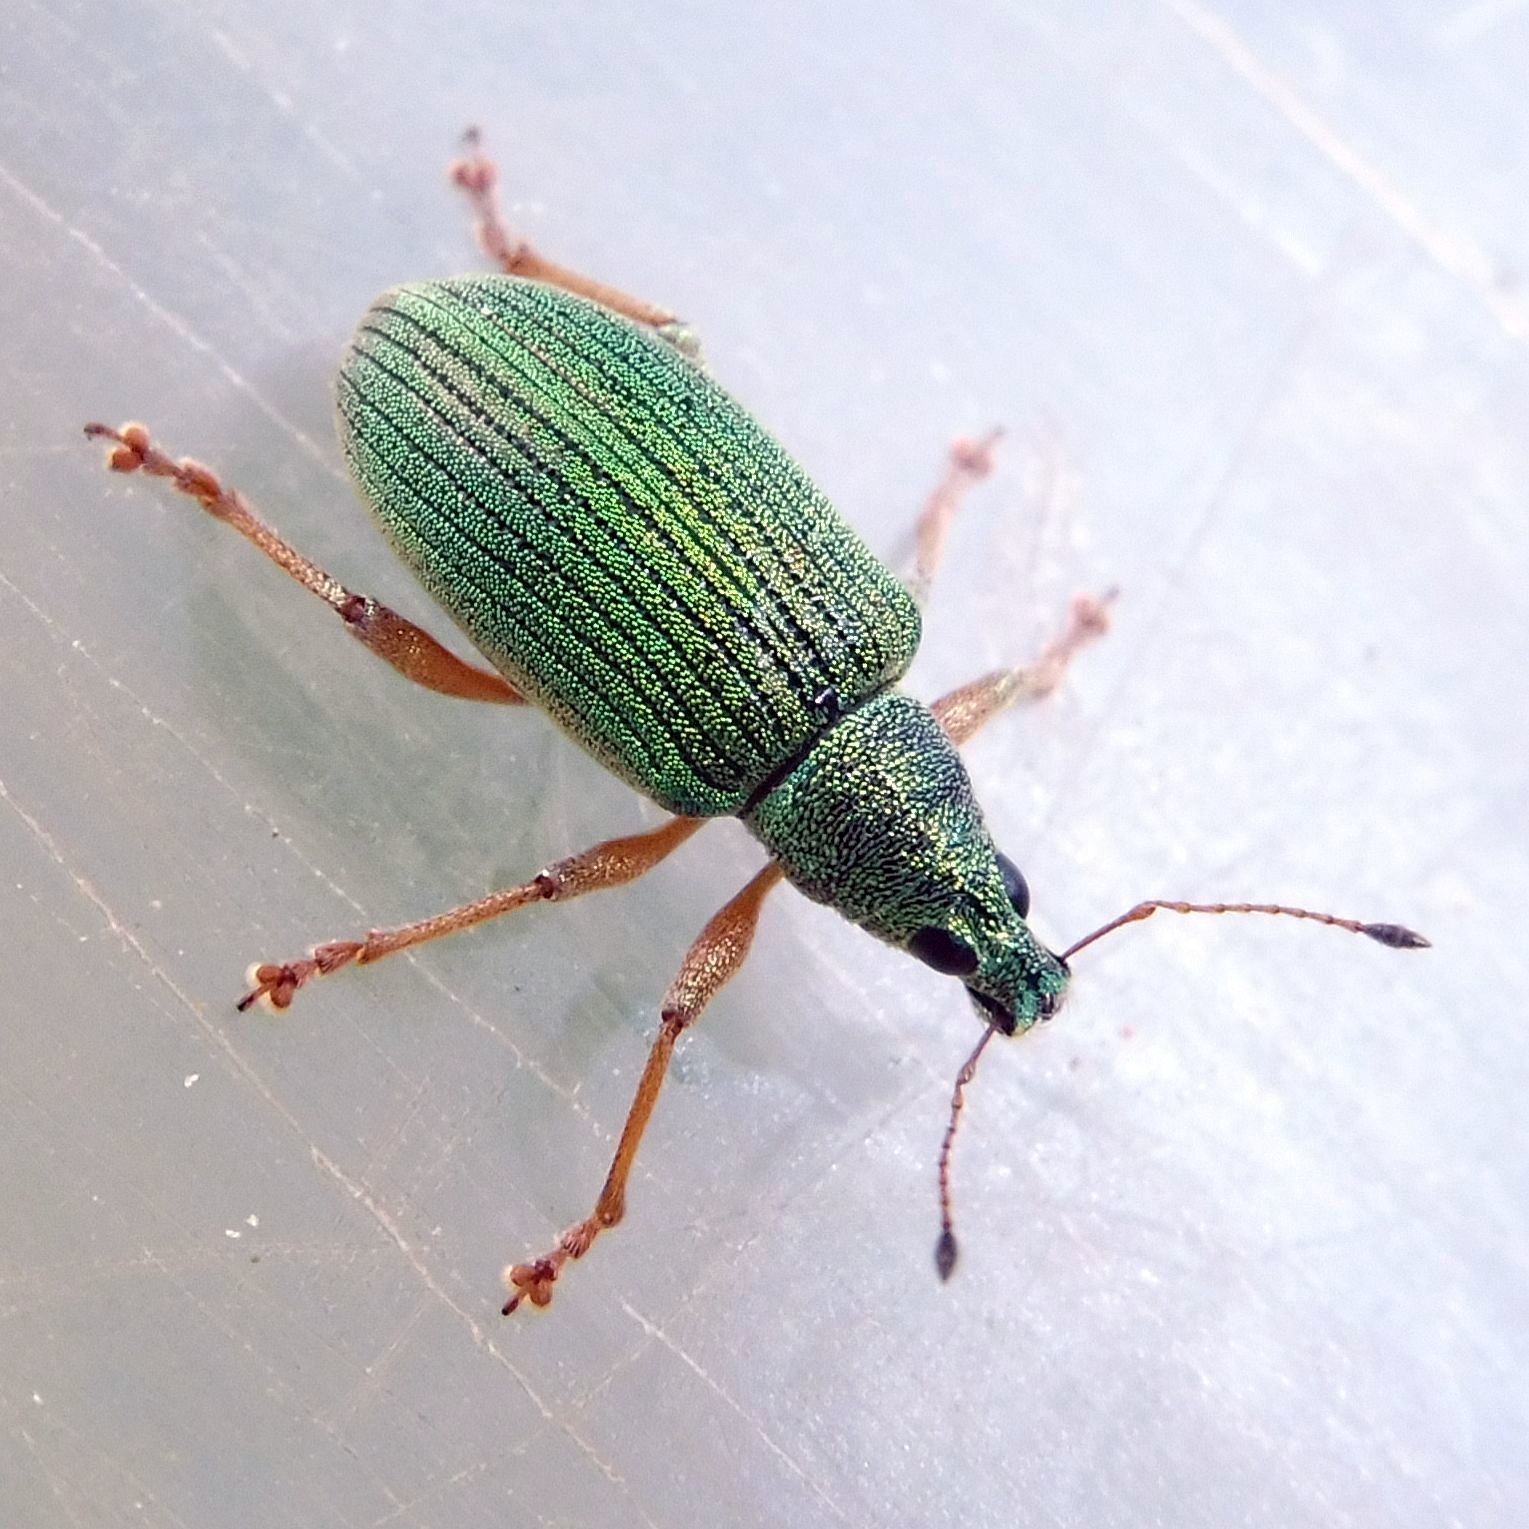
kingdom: Animalia
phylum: Arthropoda
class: Insecta
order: Coleoptera
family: Curculionidae
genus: Polydrusus
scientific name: Polydrusus formosus
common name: Weevil
